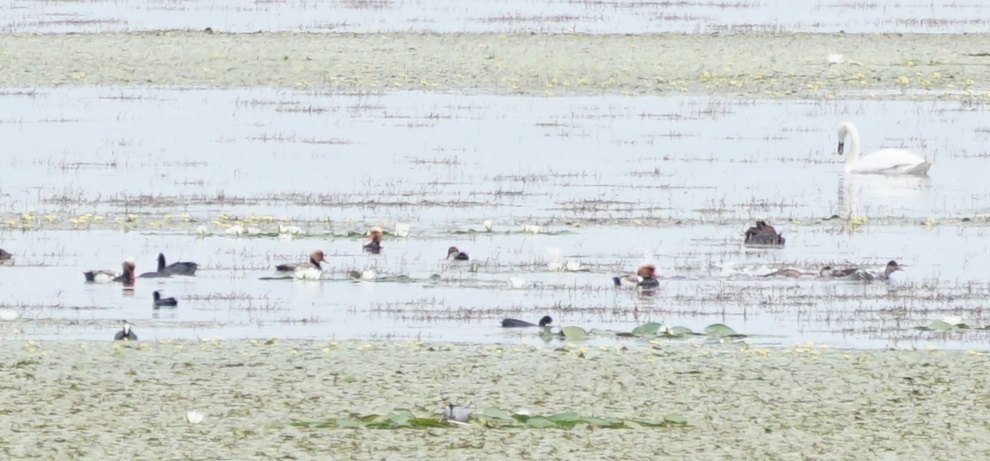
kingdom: Animalia
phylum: Chordata
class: Aves
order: Gruiformes
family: Rallidae
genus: Fulica
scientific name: Fulica atra
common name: Eurasian coot
